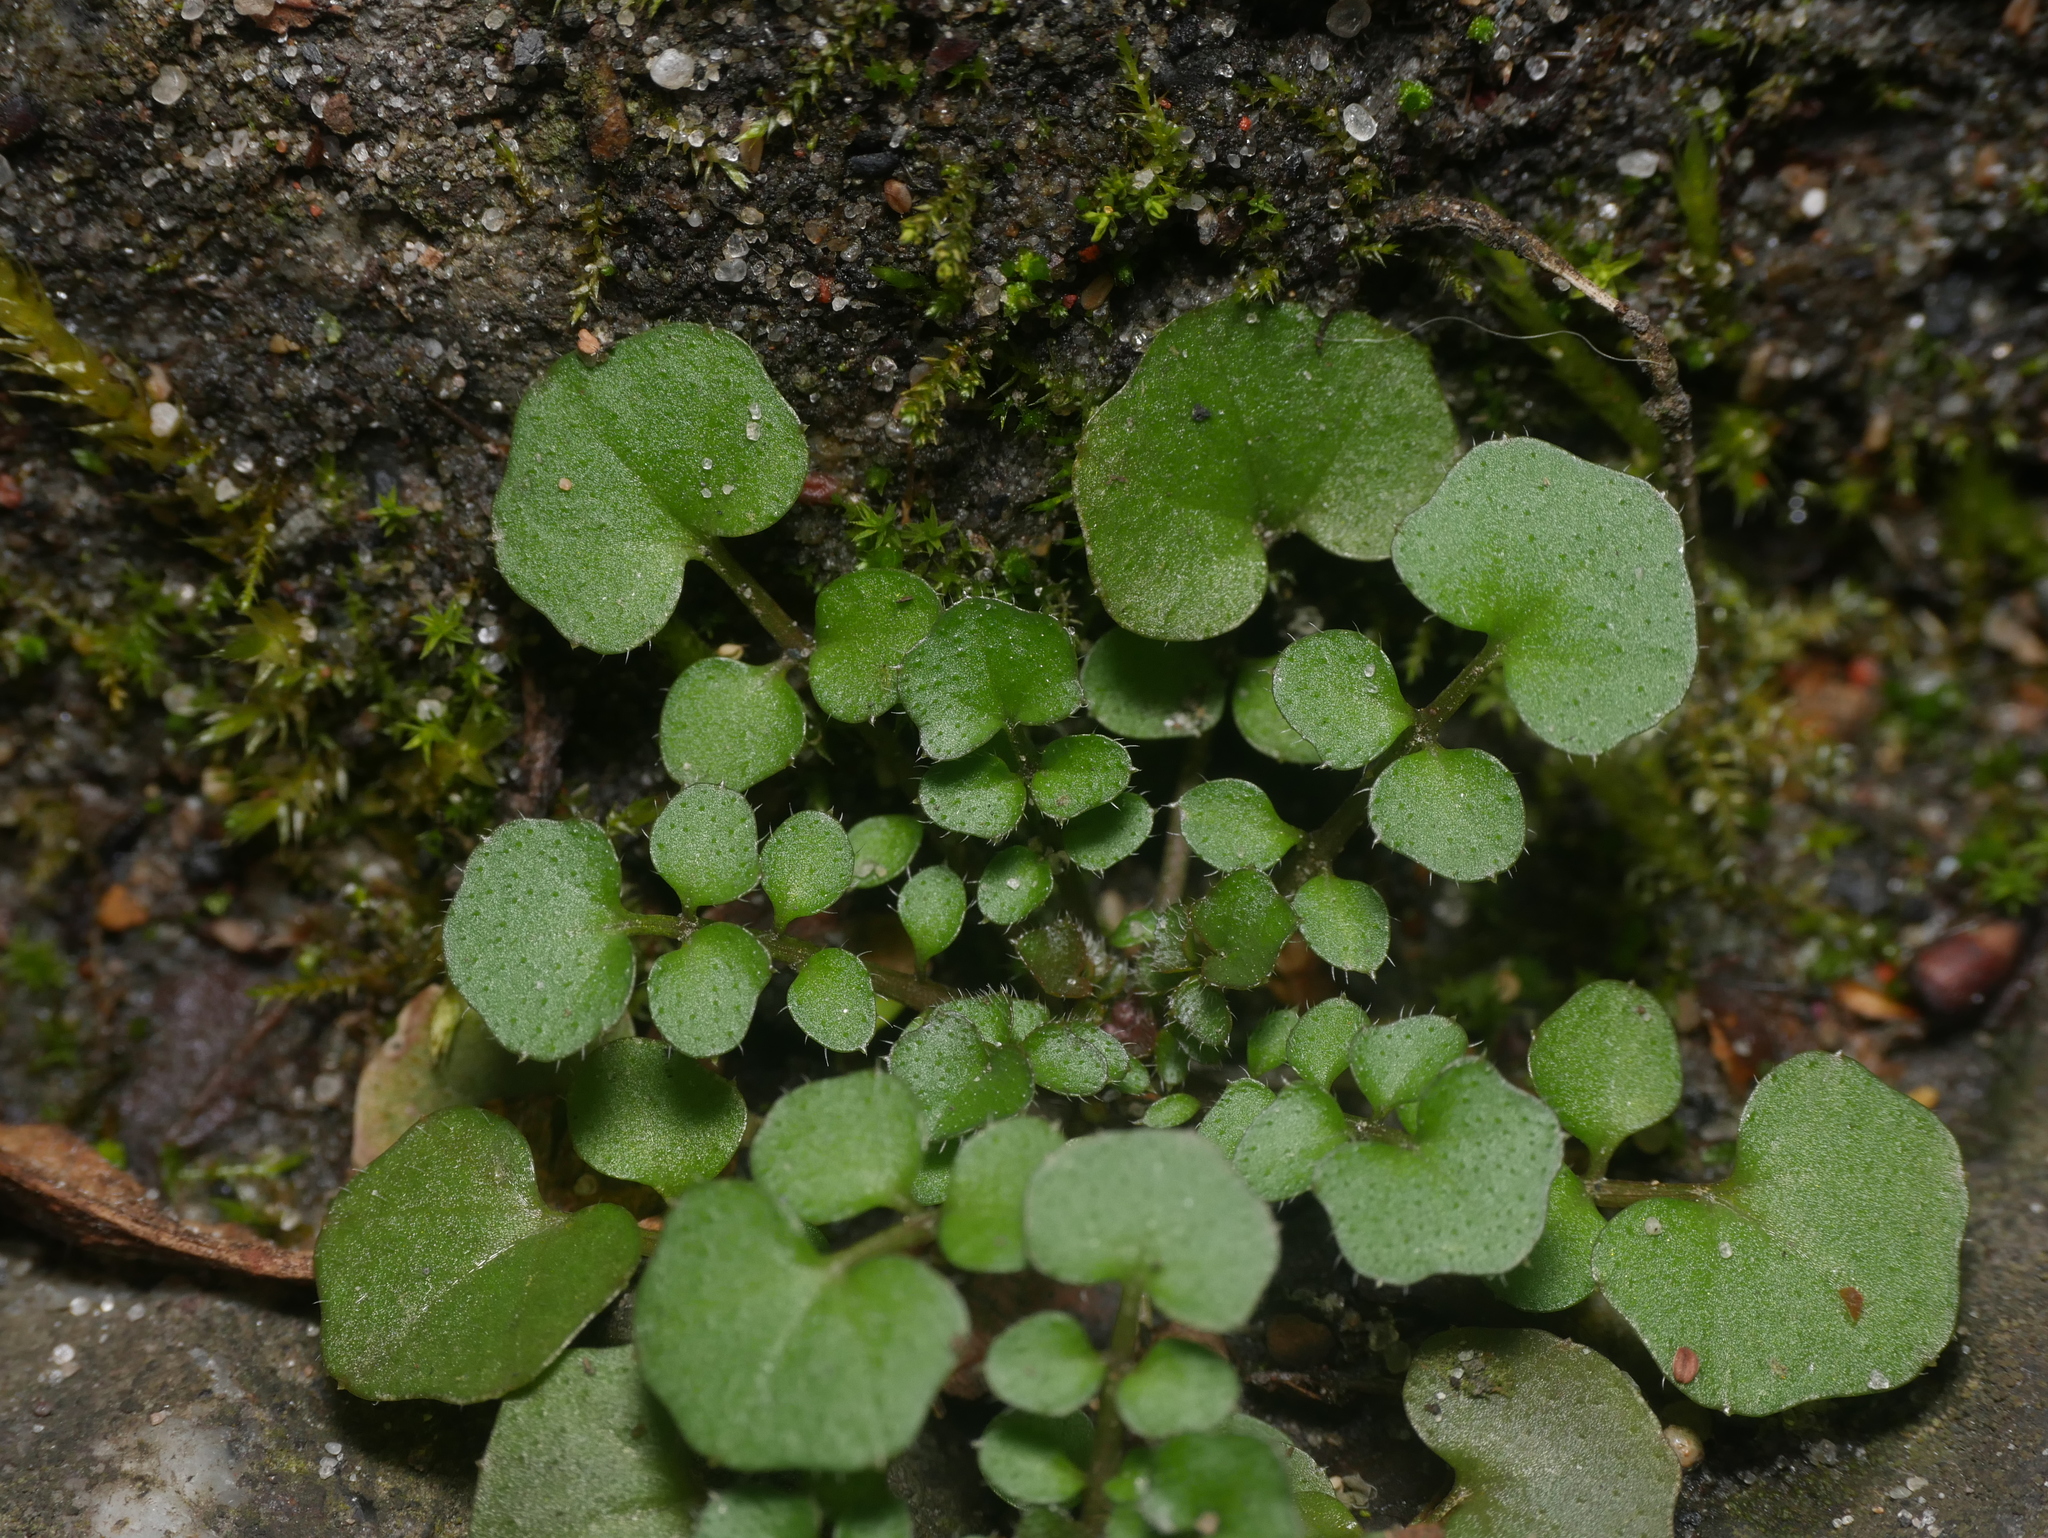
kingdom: Plantae
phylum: Tracheophyta
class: Magnoliopsida
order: Brassicales
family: Brassicaceae
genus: Cardamine
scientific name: Cardamine hirsuta
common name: Hairy bittercress
